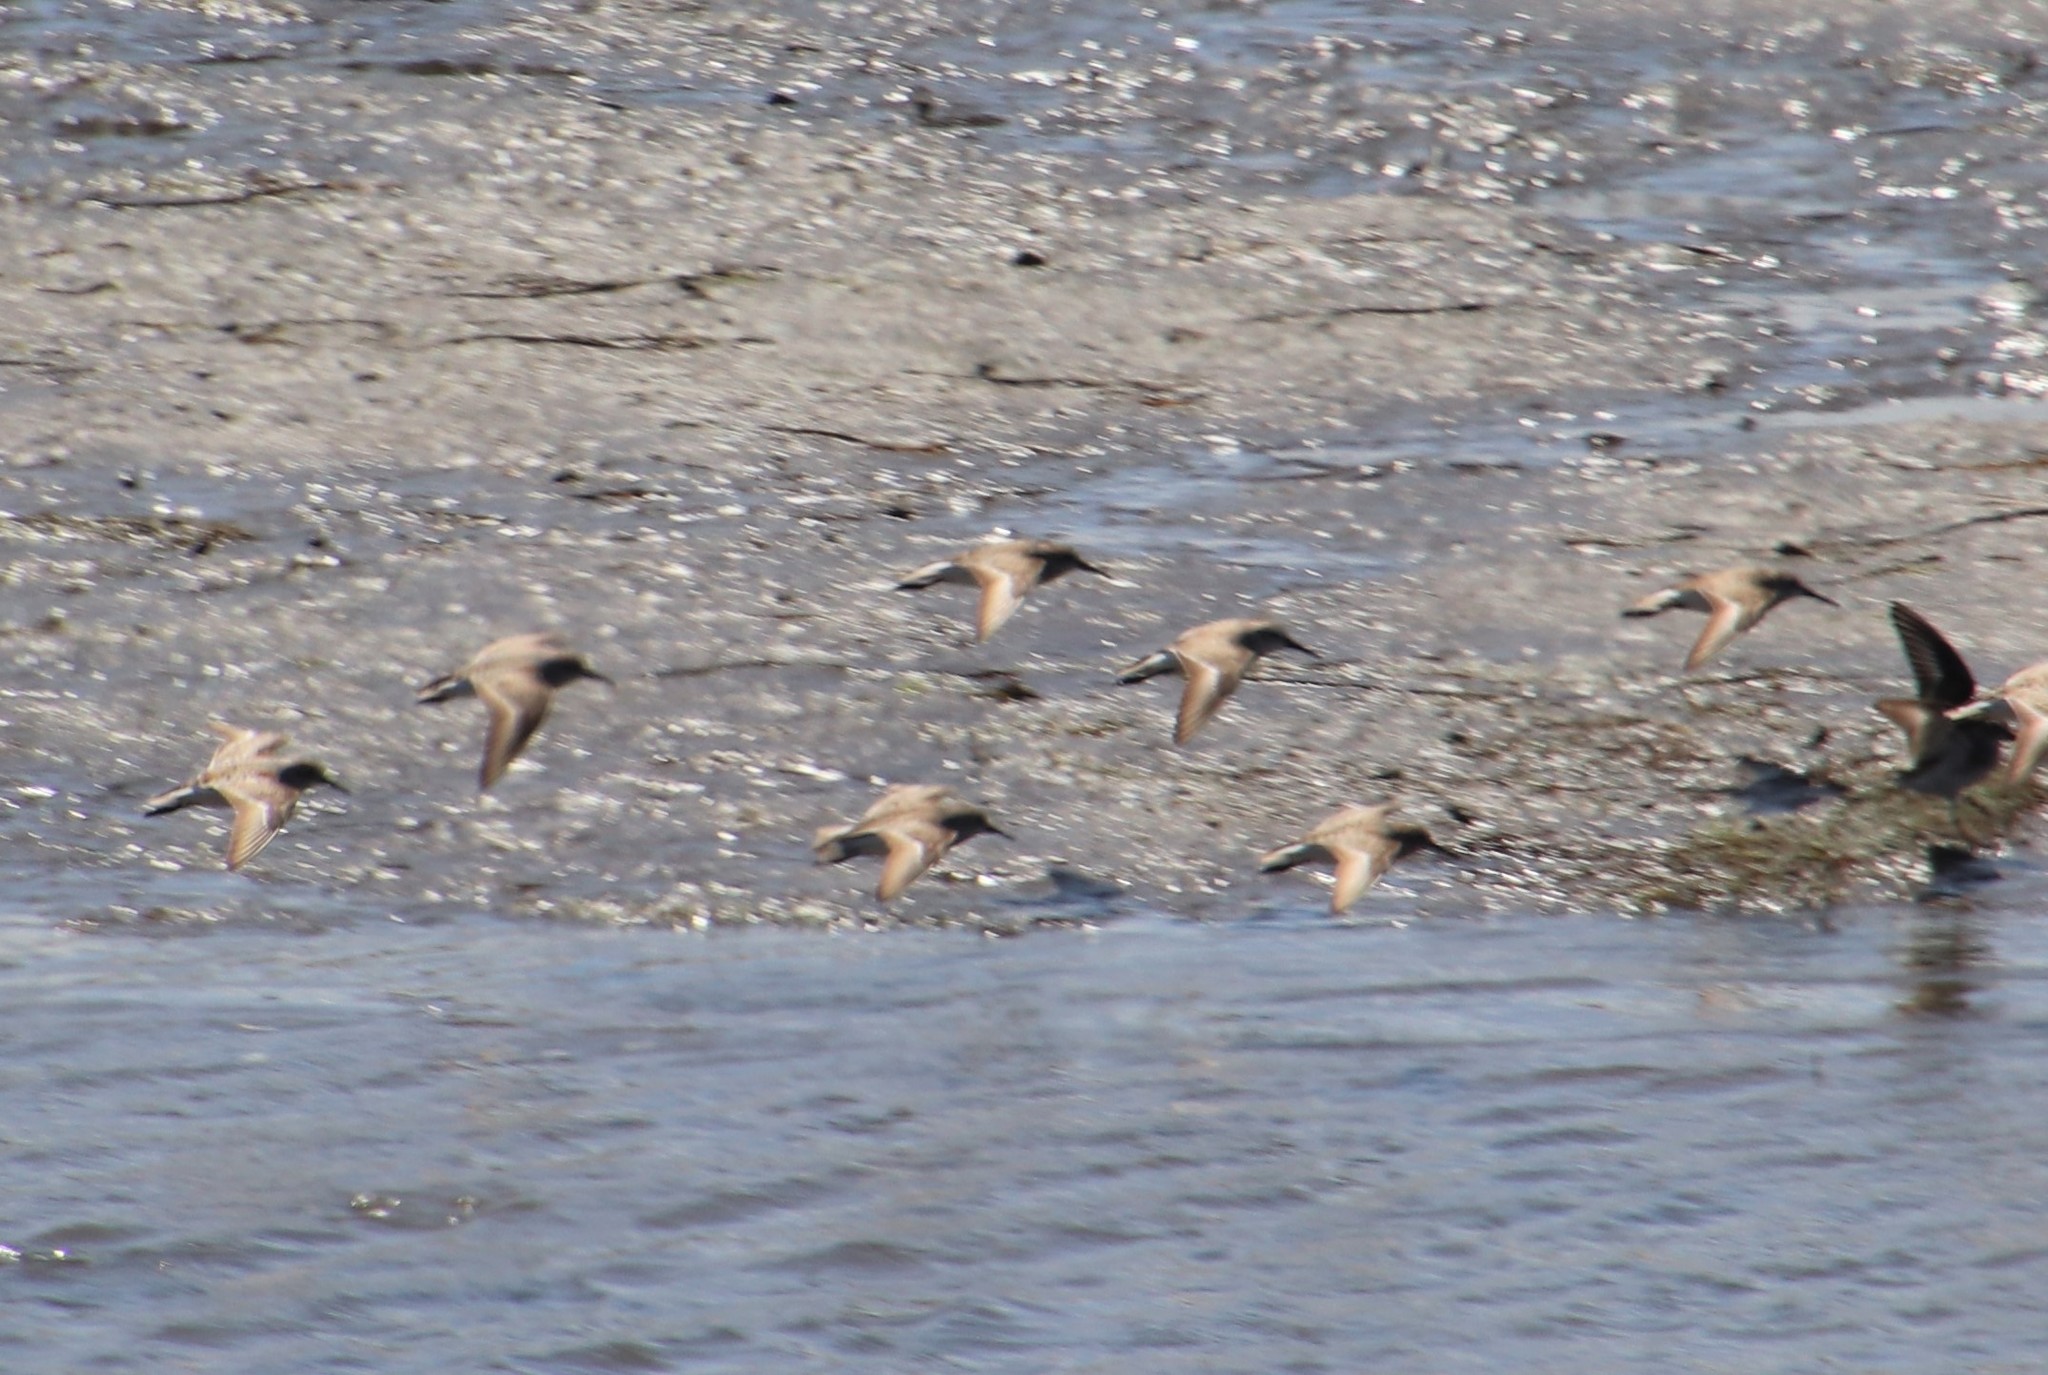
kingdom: Animalia
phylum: Chordata
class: Aves
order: Charadriiformes
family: Scolopacidae
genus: Calidris
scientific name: Calidris mauri
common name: Western sandpiper
